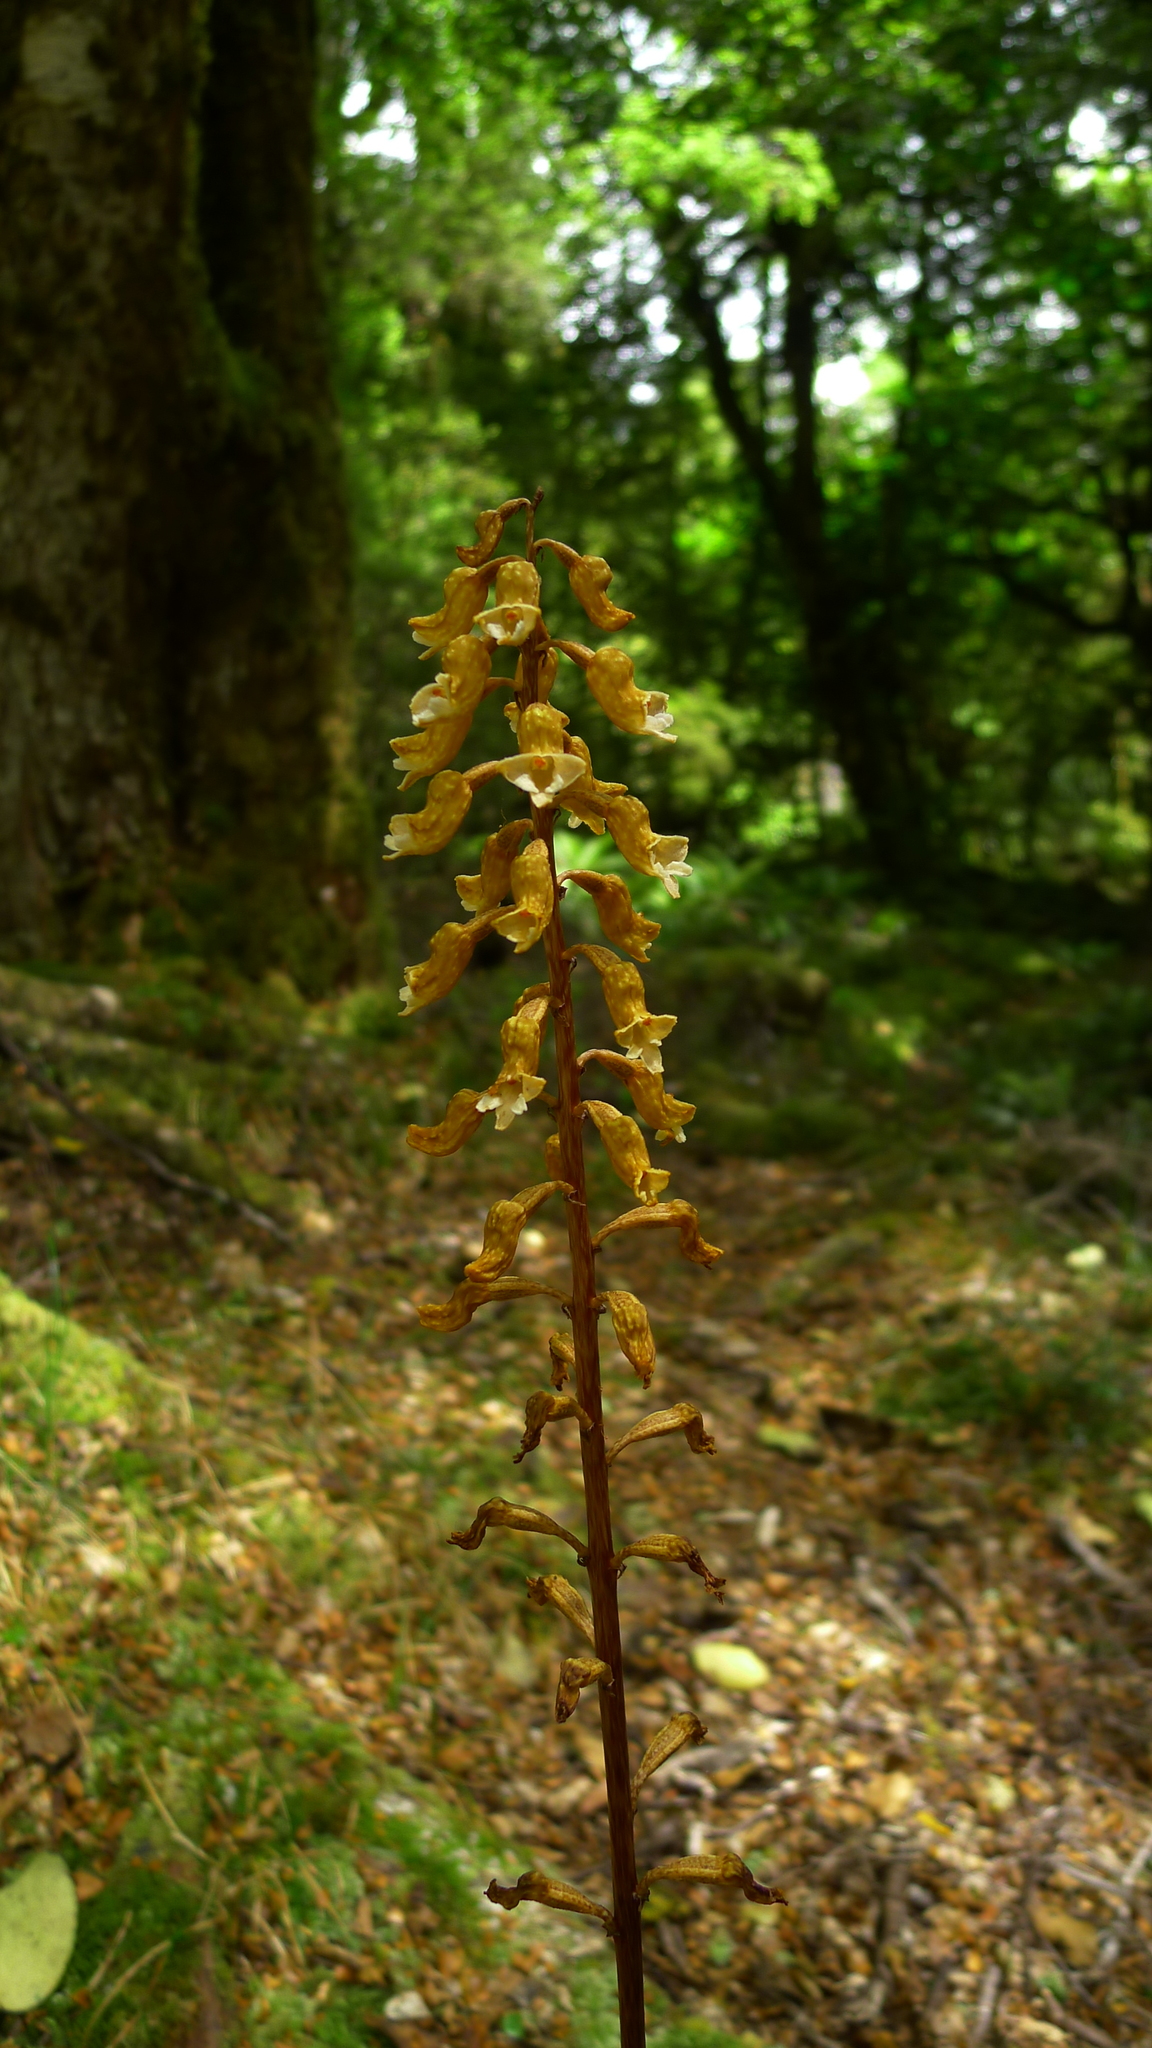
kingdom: Plantae
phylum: Tracheophyta
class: Liliopsida
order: Asparagales
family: Orchidaceae
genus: Gastrodia
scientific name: Gastrodia cunninghamii
